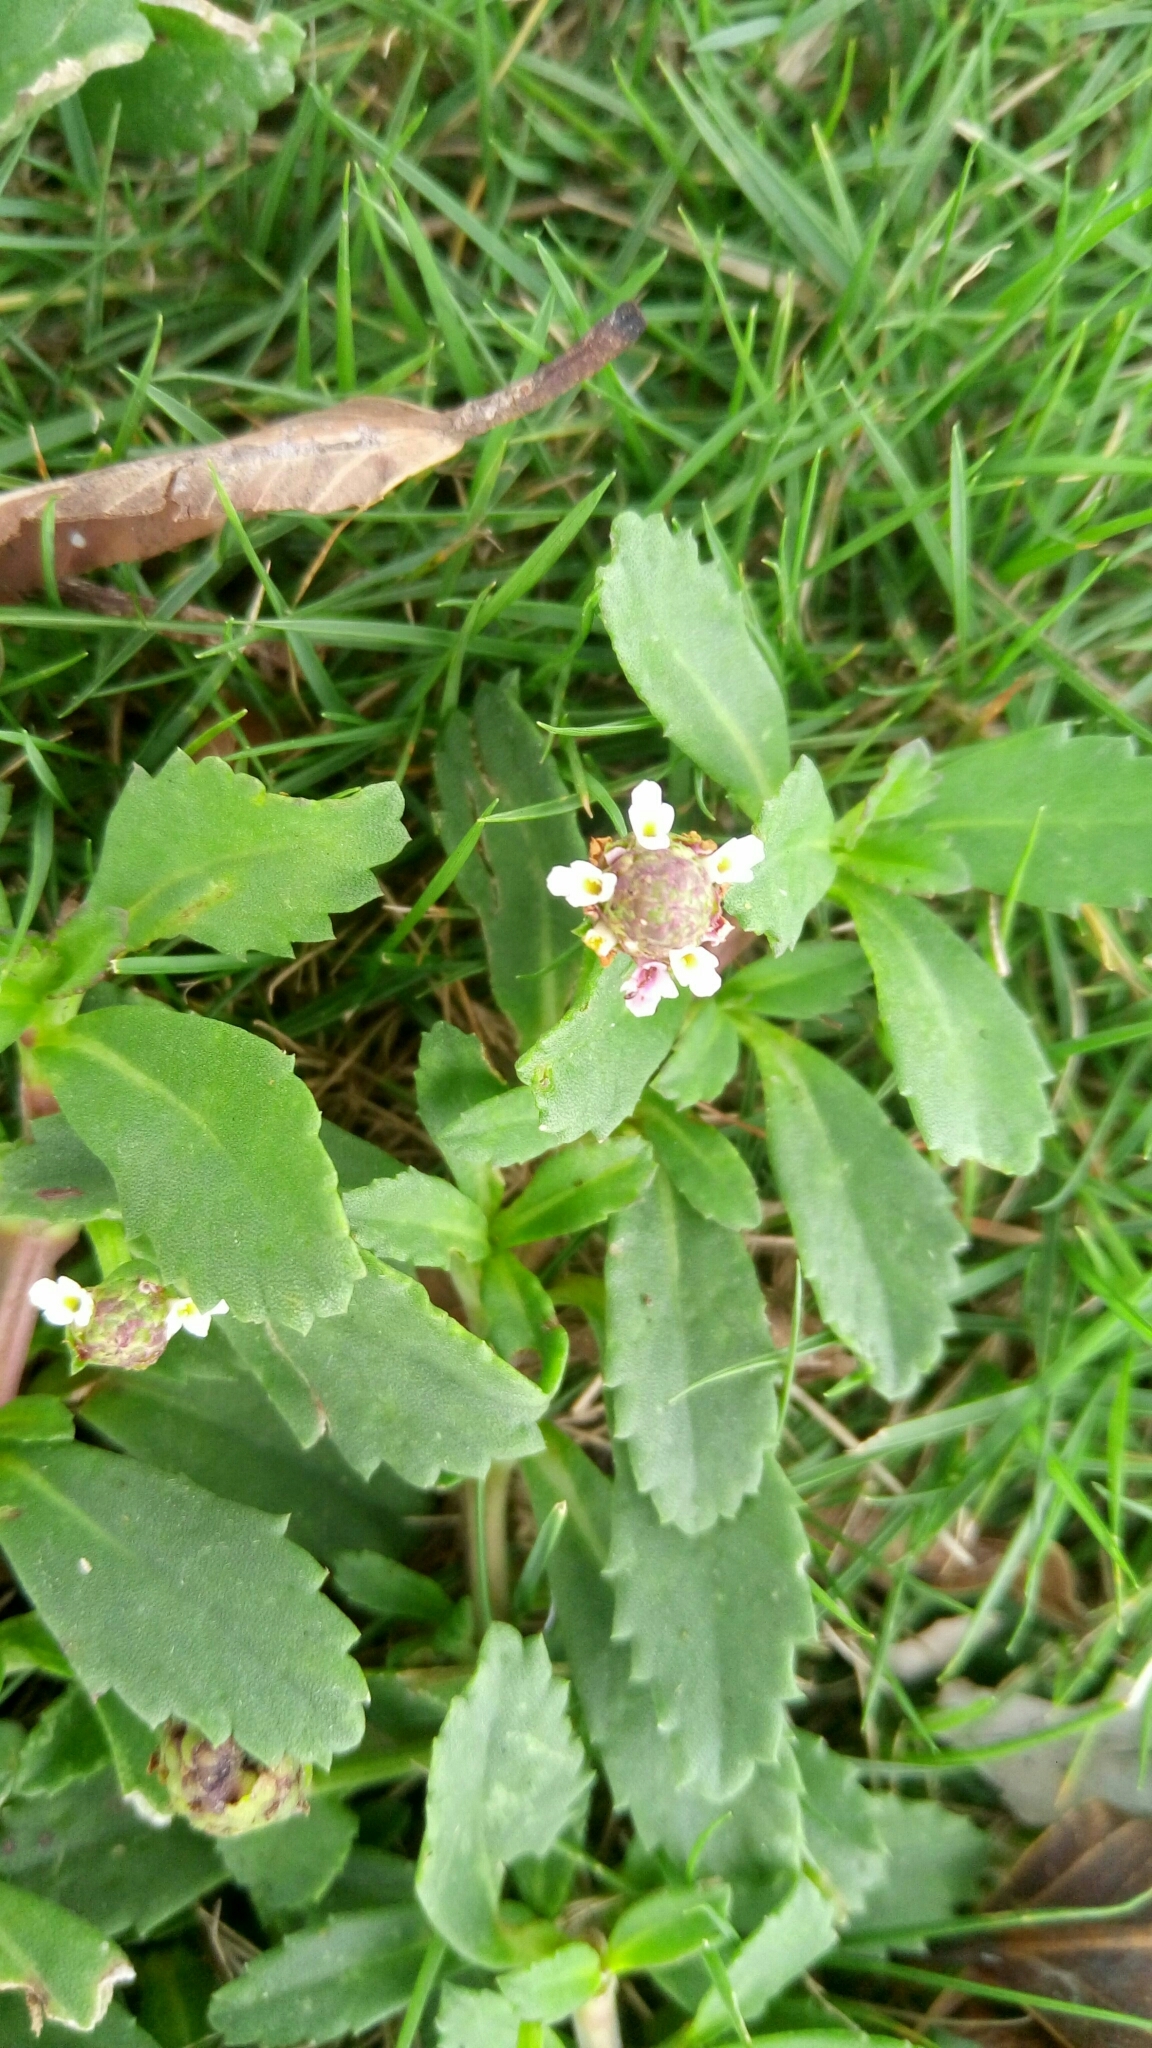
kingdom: Plantae
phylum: Tracheophyta
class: Magnoliopsida
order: Lamiales
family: Verbenaceae
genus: Phyla
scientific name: Phyla nodiflora
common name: Frogfruit
